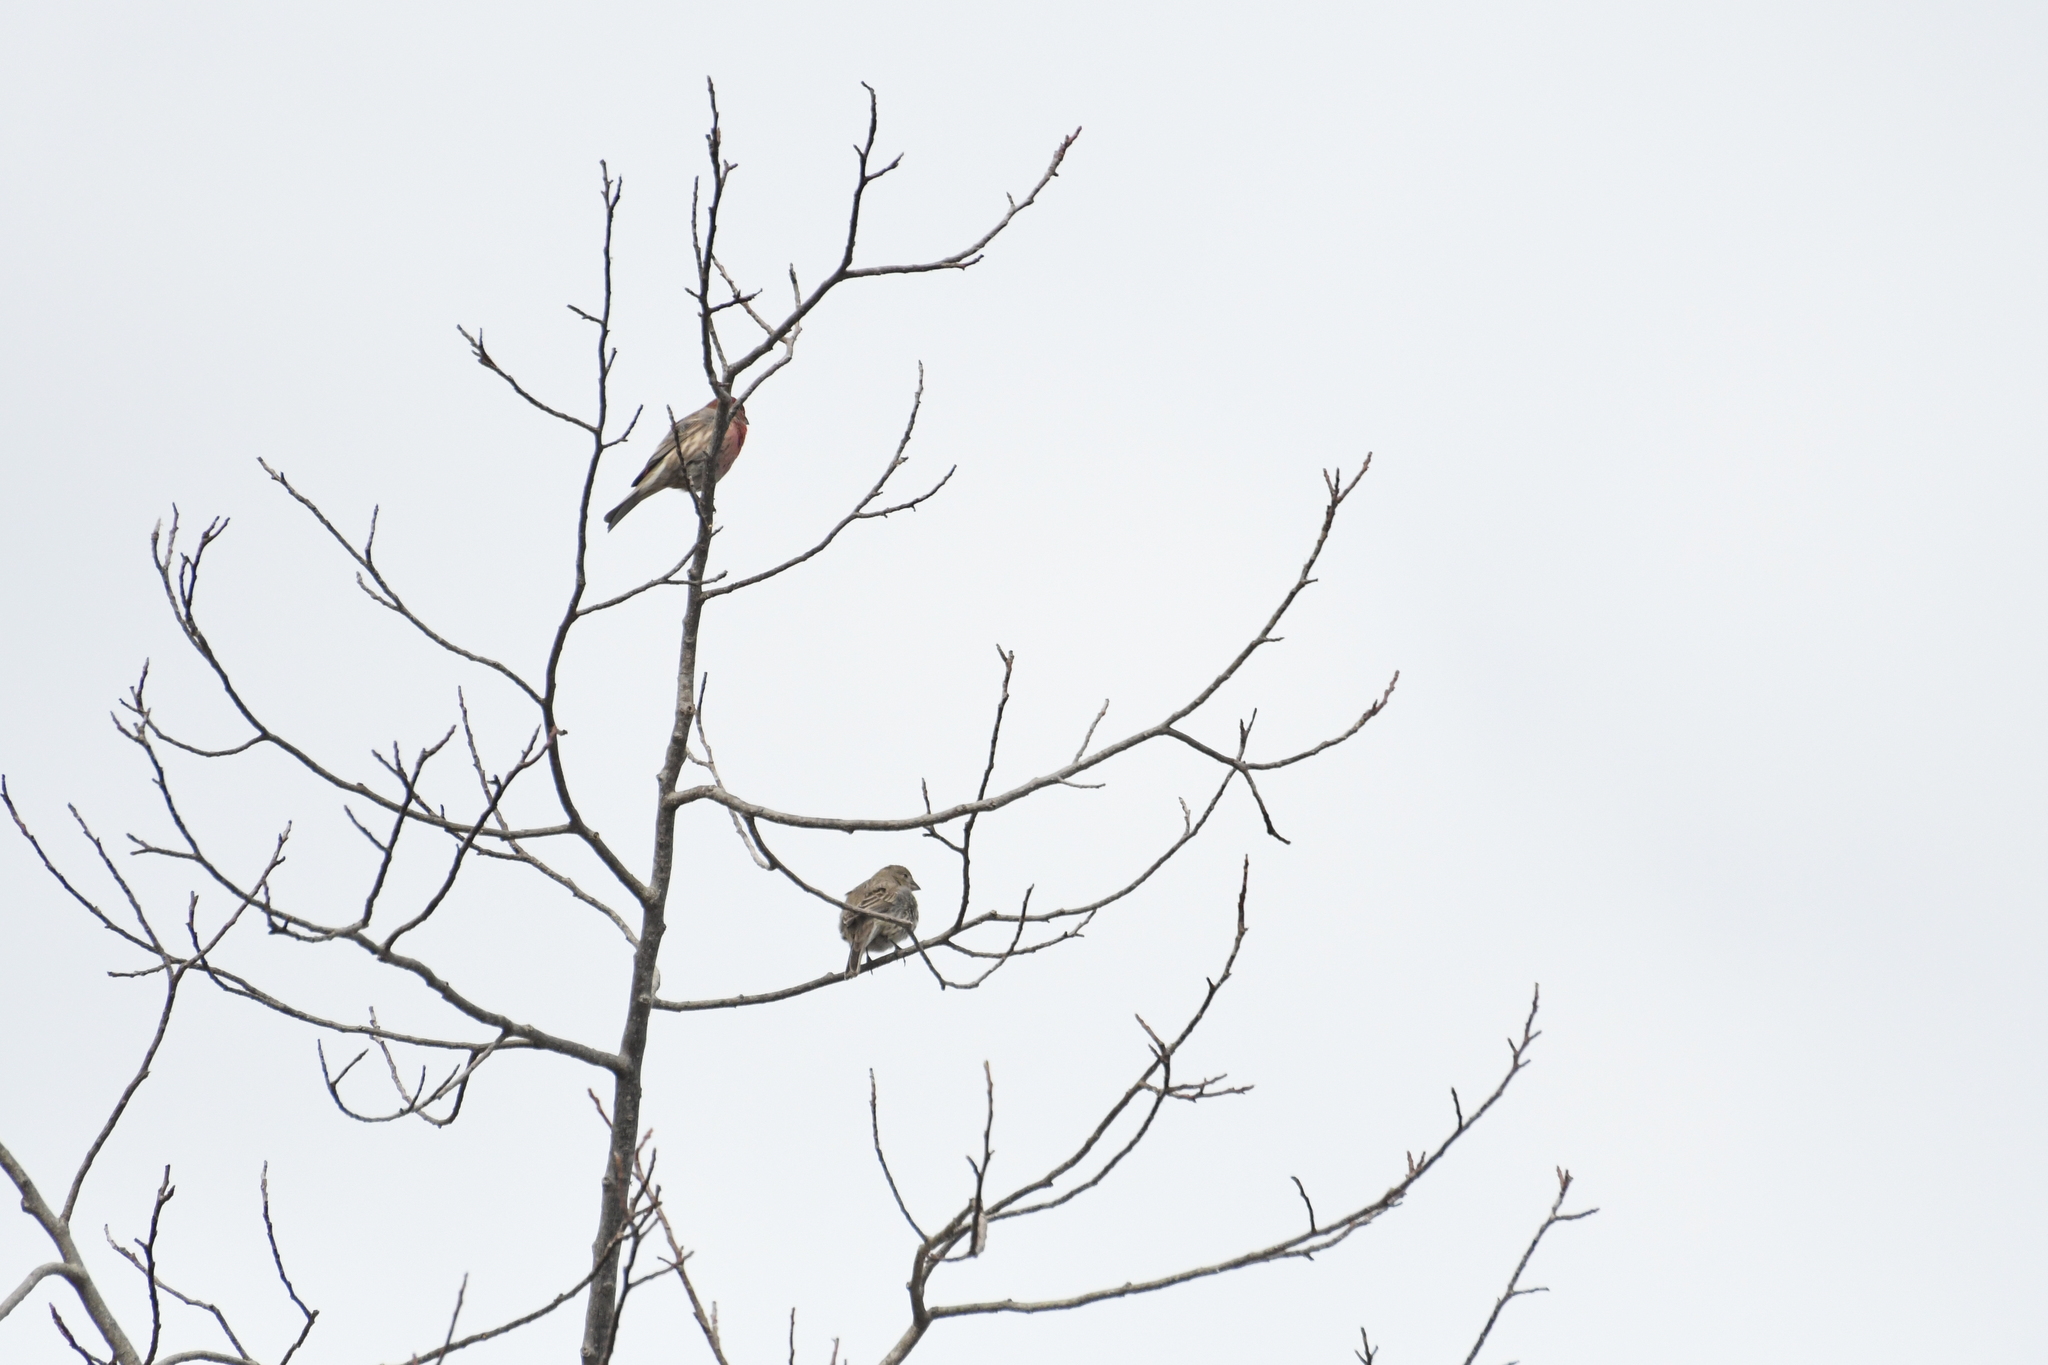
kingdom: Animalia
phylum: Chordata
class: Aves
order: Passeriformes
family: Fringillidae
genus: Haemorhous
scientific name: Haemorhous mexicanus
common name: House finch
